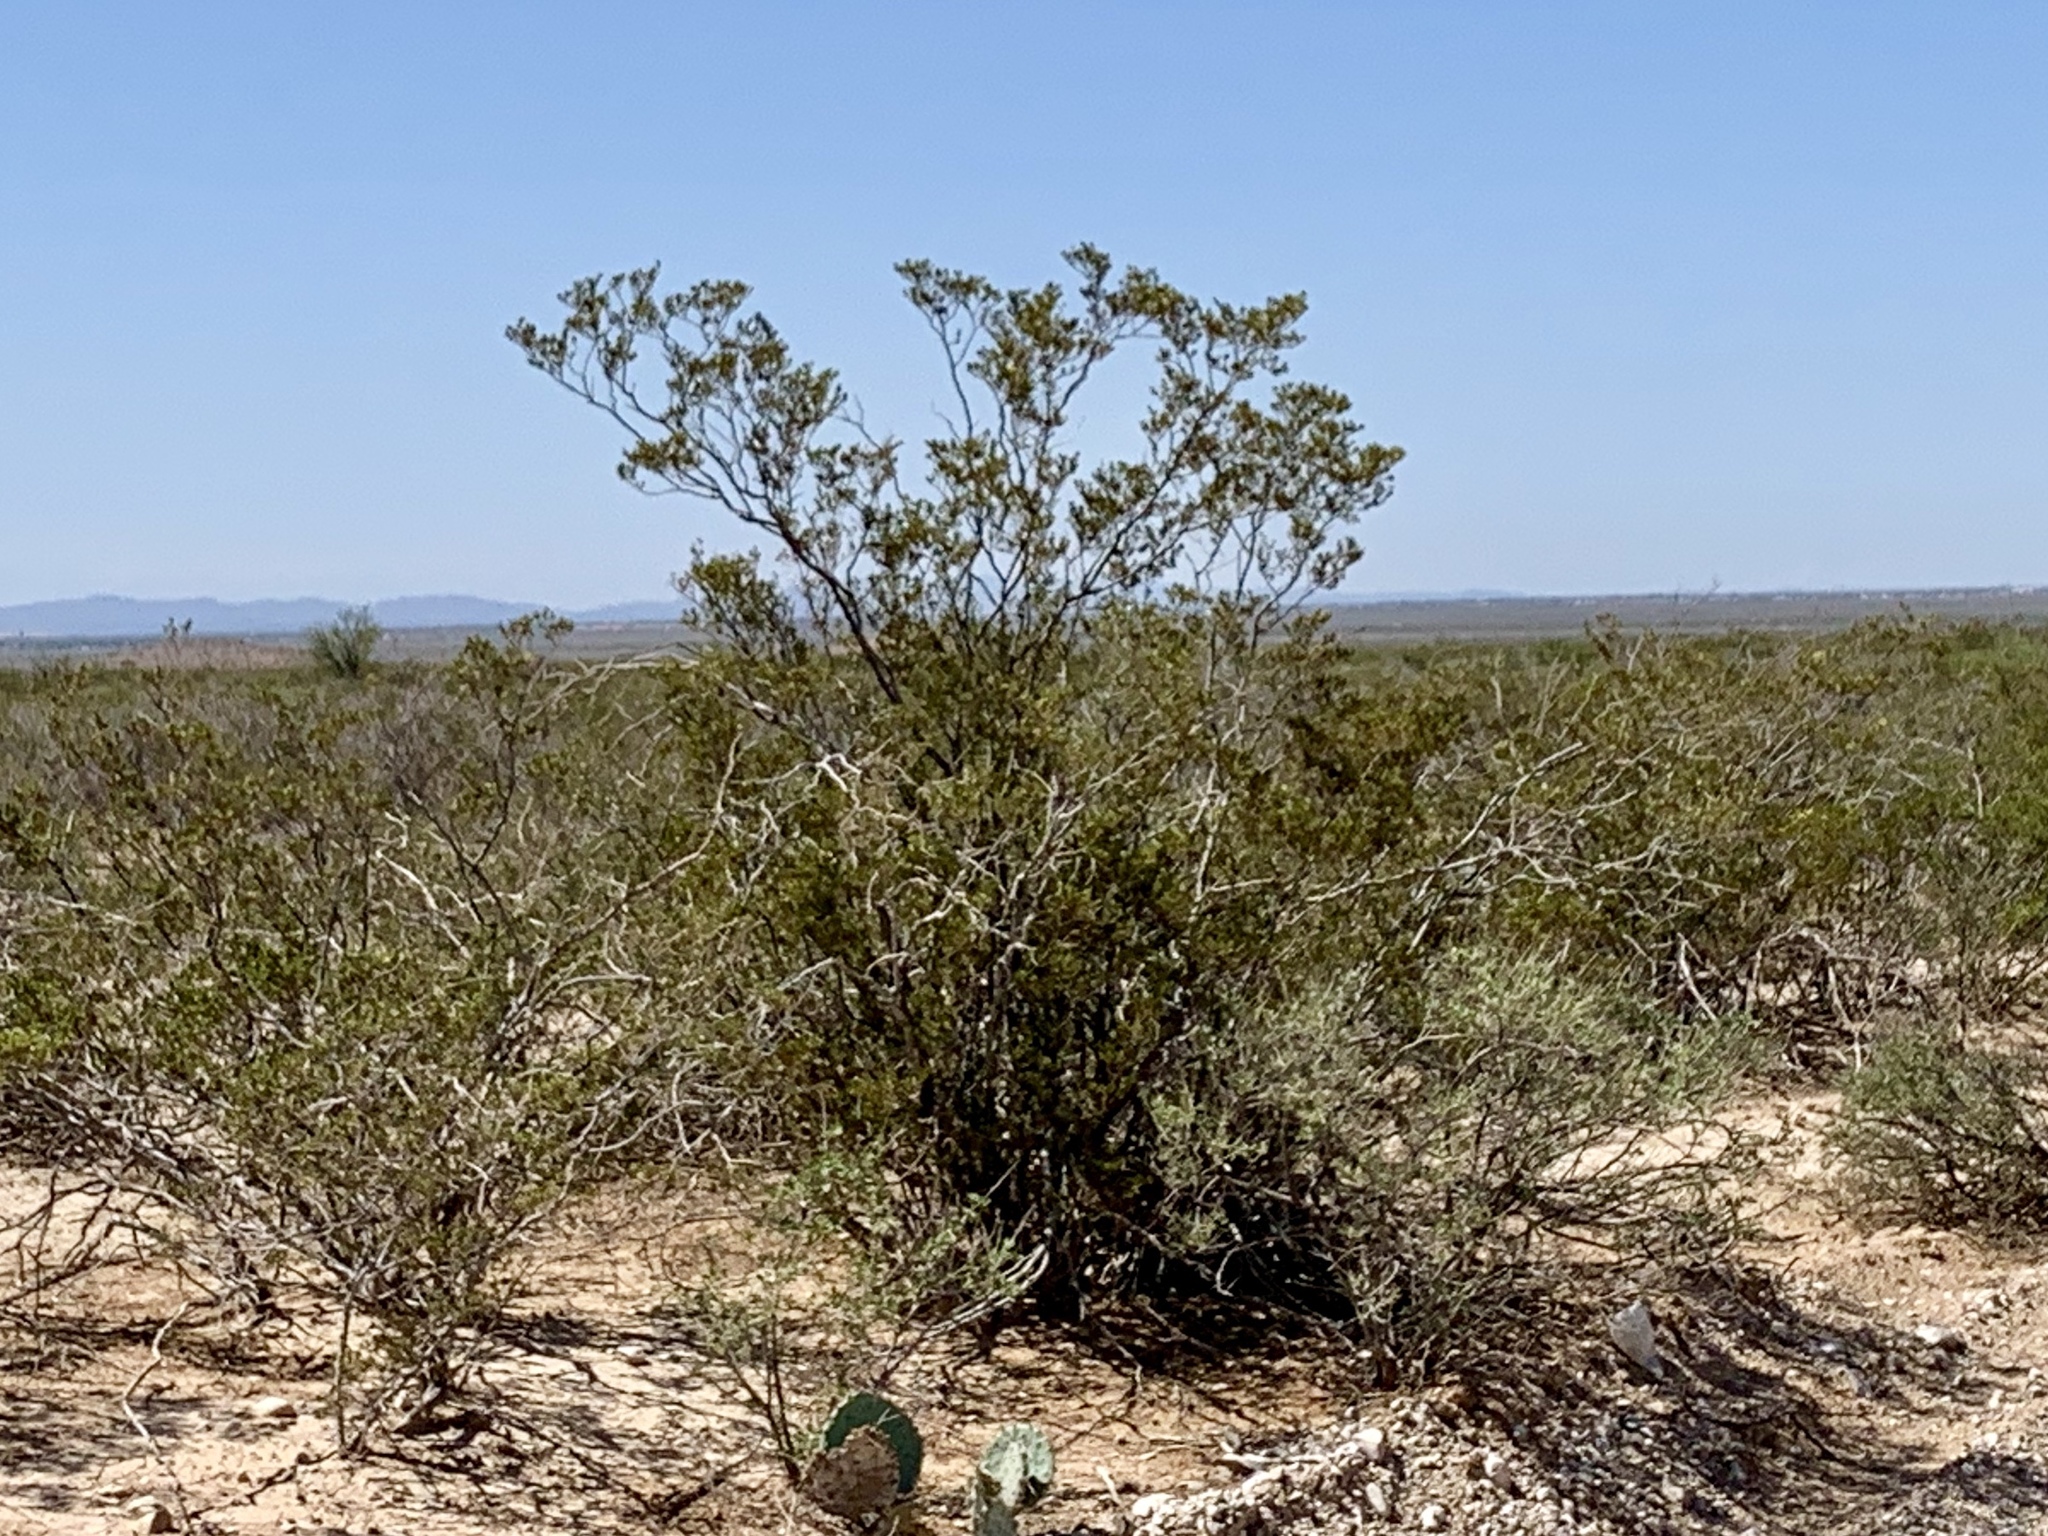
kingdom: Plantae
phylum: Tracheophyta
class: Magnoliopsida
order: Zygophyllales
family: Zygophyllaceae
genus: Larrea
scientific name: Larrea tridentata
